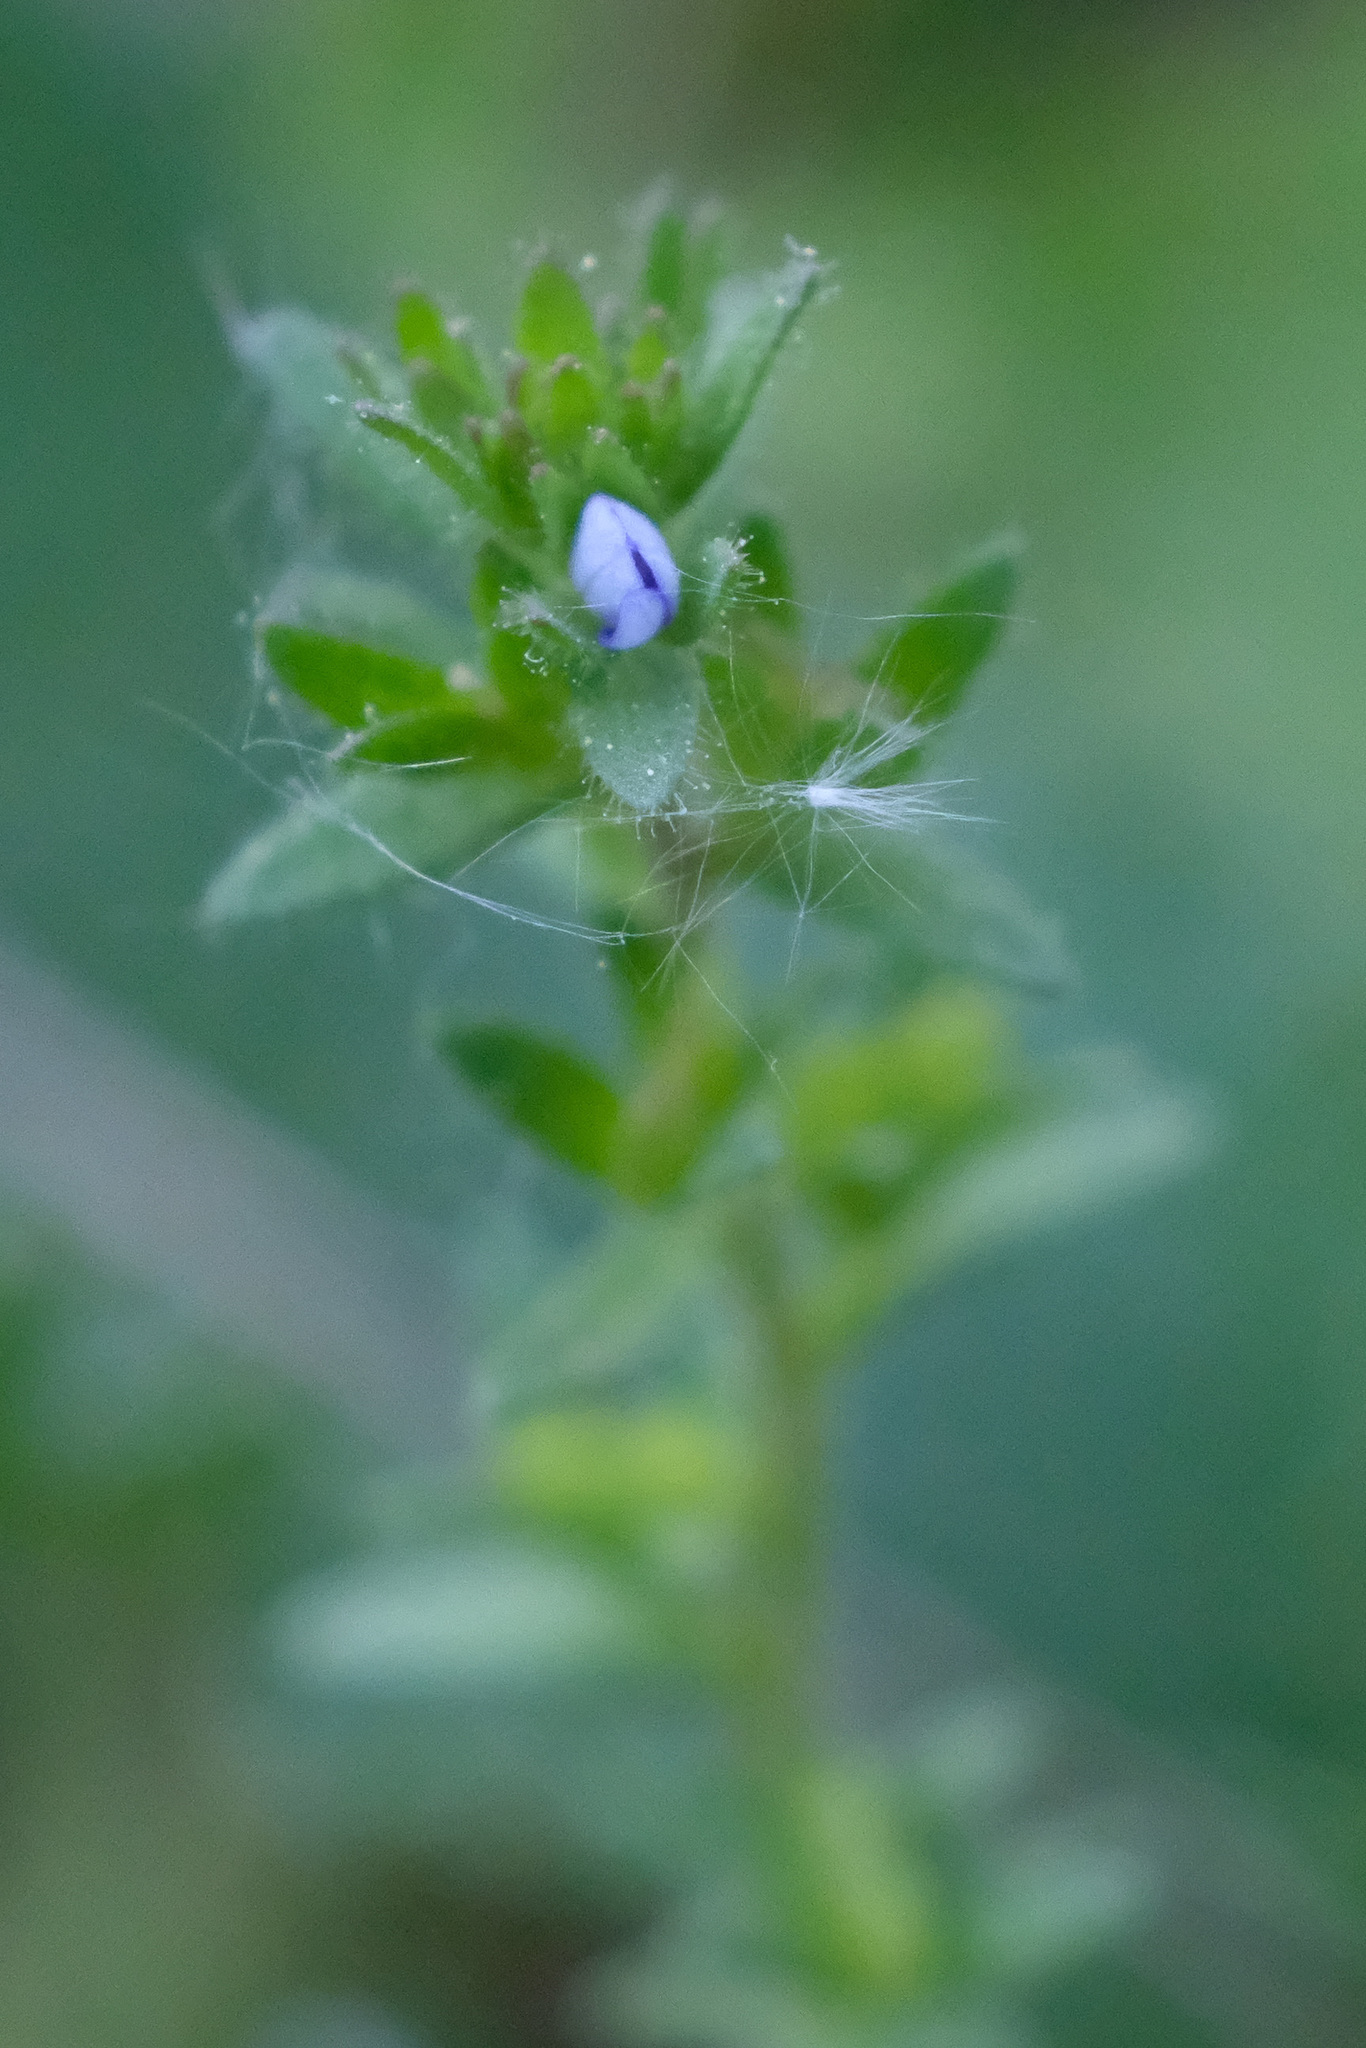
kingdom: Plantae
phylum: Tracheophyta
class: Magnoliopsida
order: Lamiales
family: Plantaginaceae
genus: Veronica
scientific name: Veronica arvensis
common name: Corn speedwell
